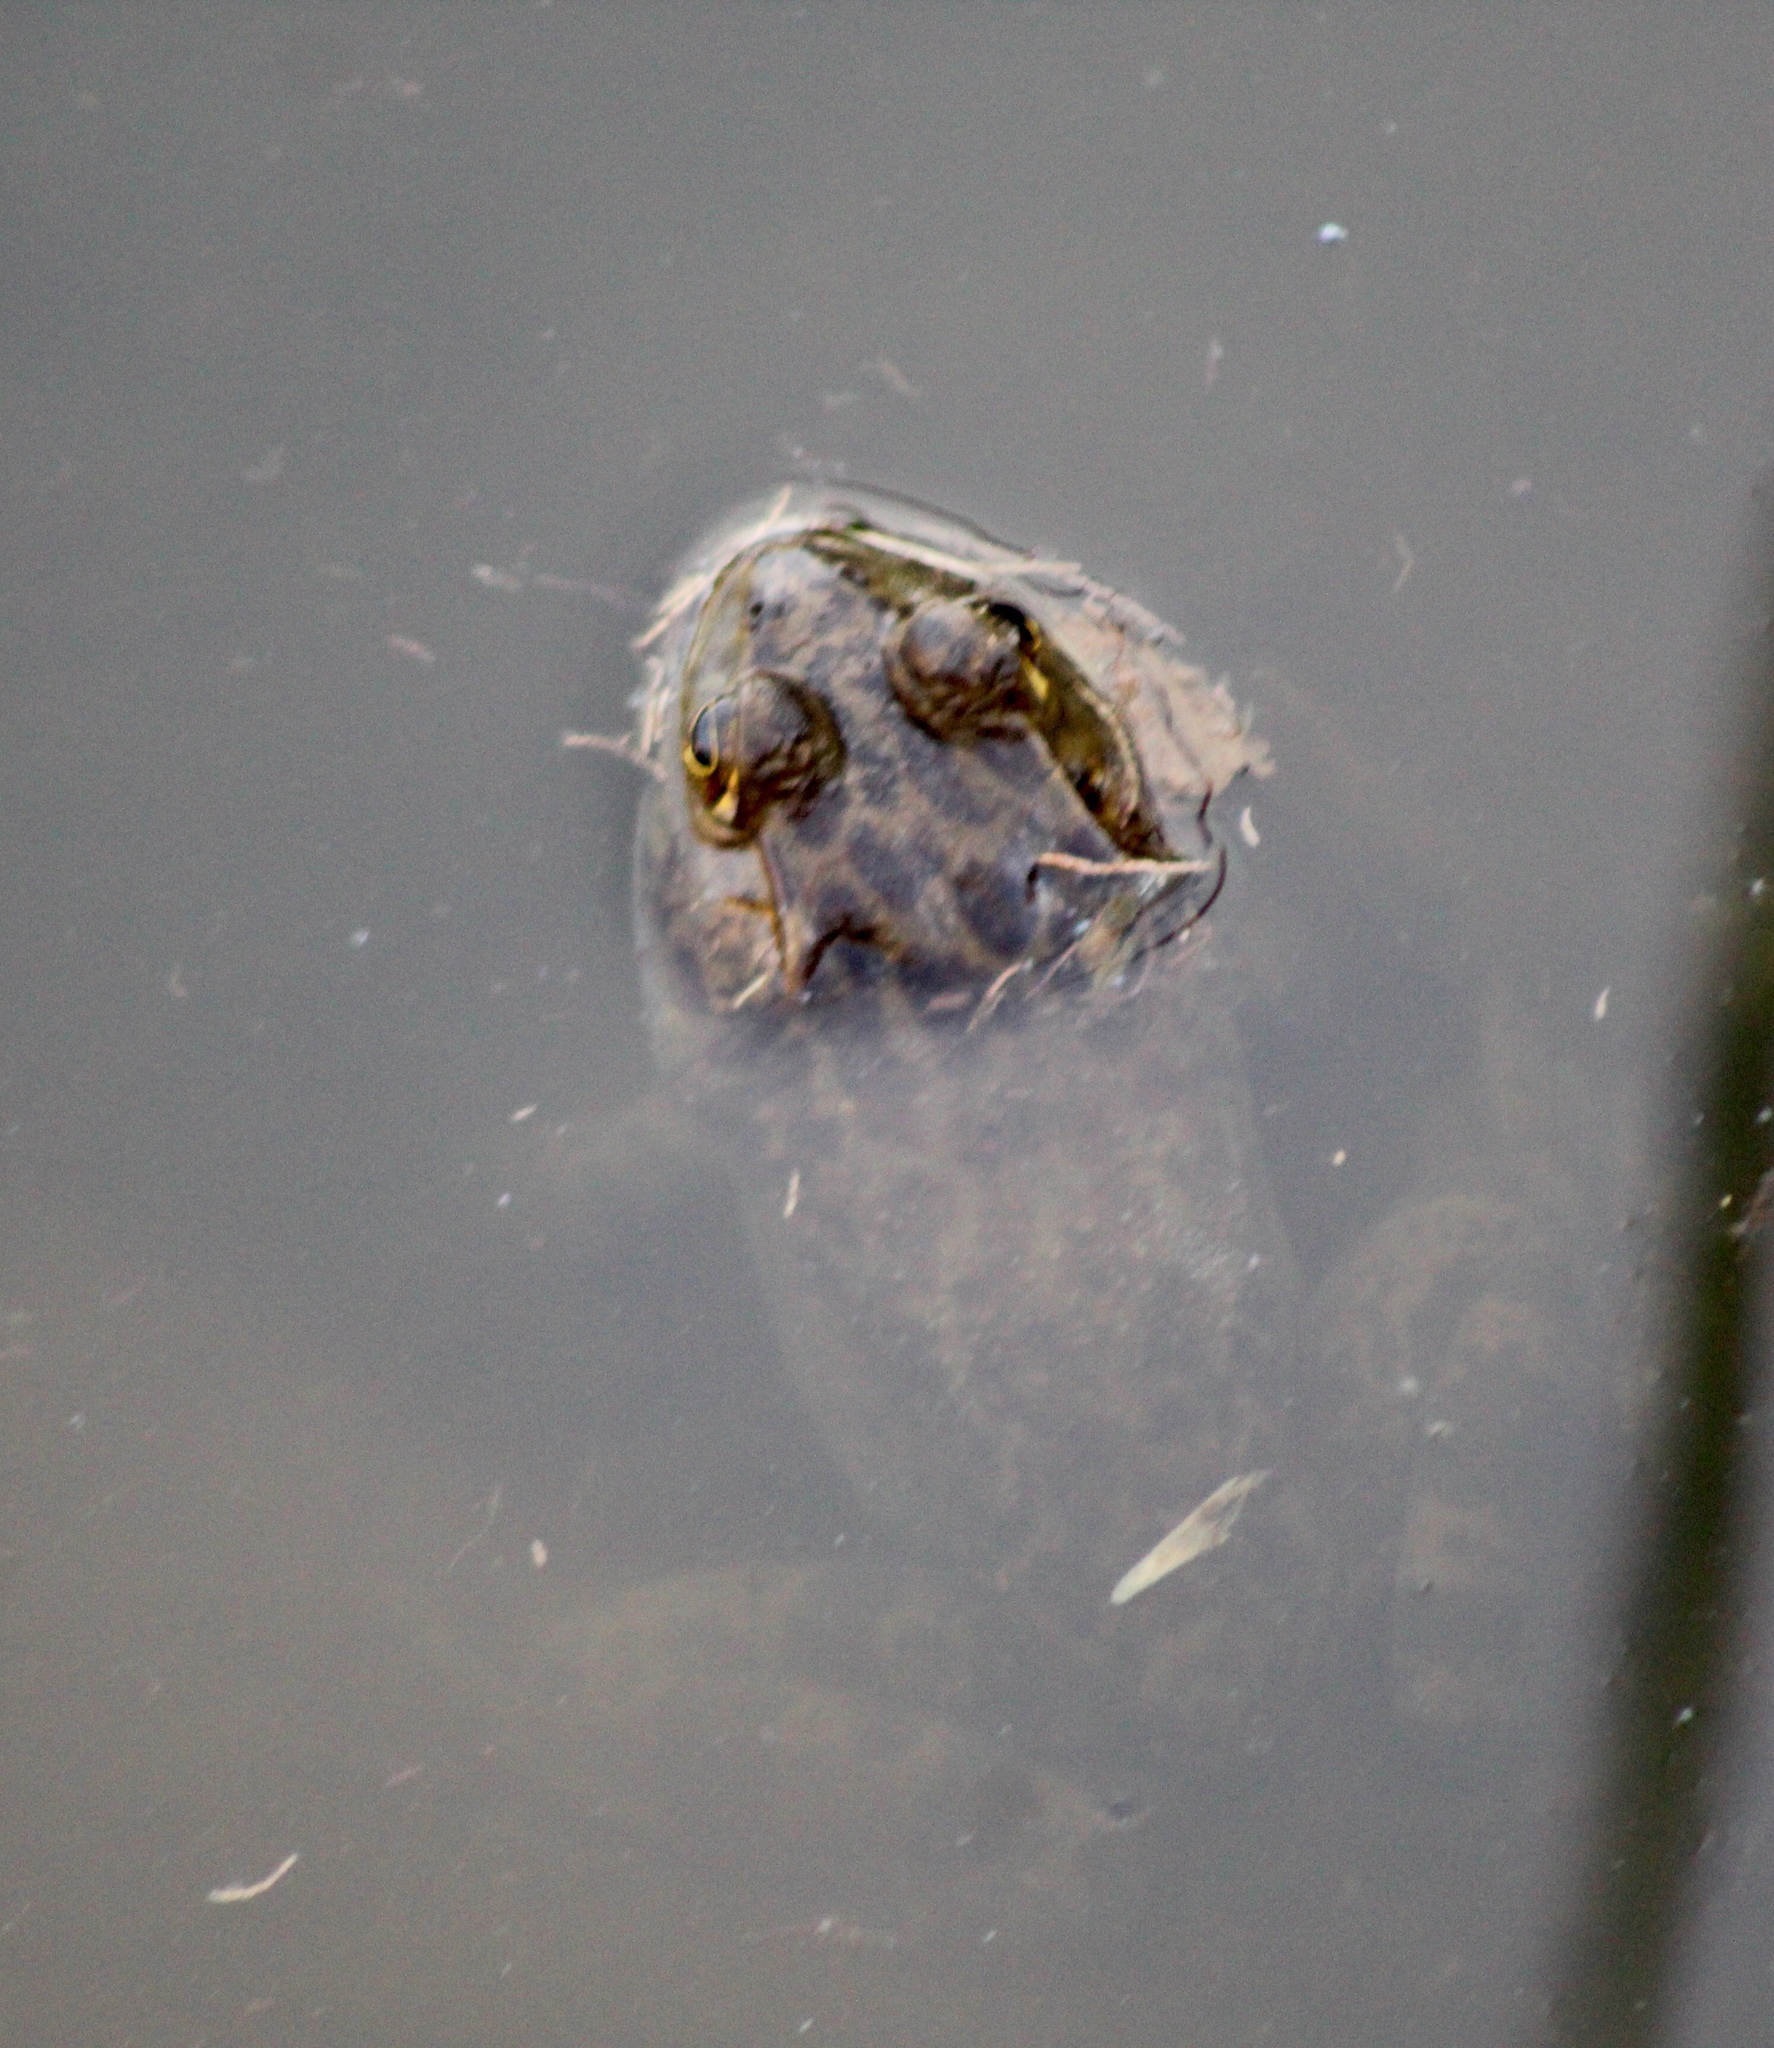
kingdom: Animalia
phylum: Chordata
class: Amphibia
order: Anura
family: Ranidae
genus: Lithobates
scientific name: Lithobates catesbeianus
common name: American bullfrog
